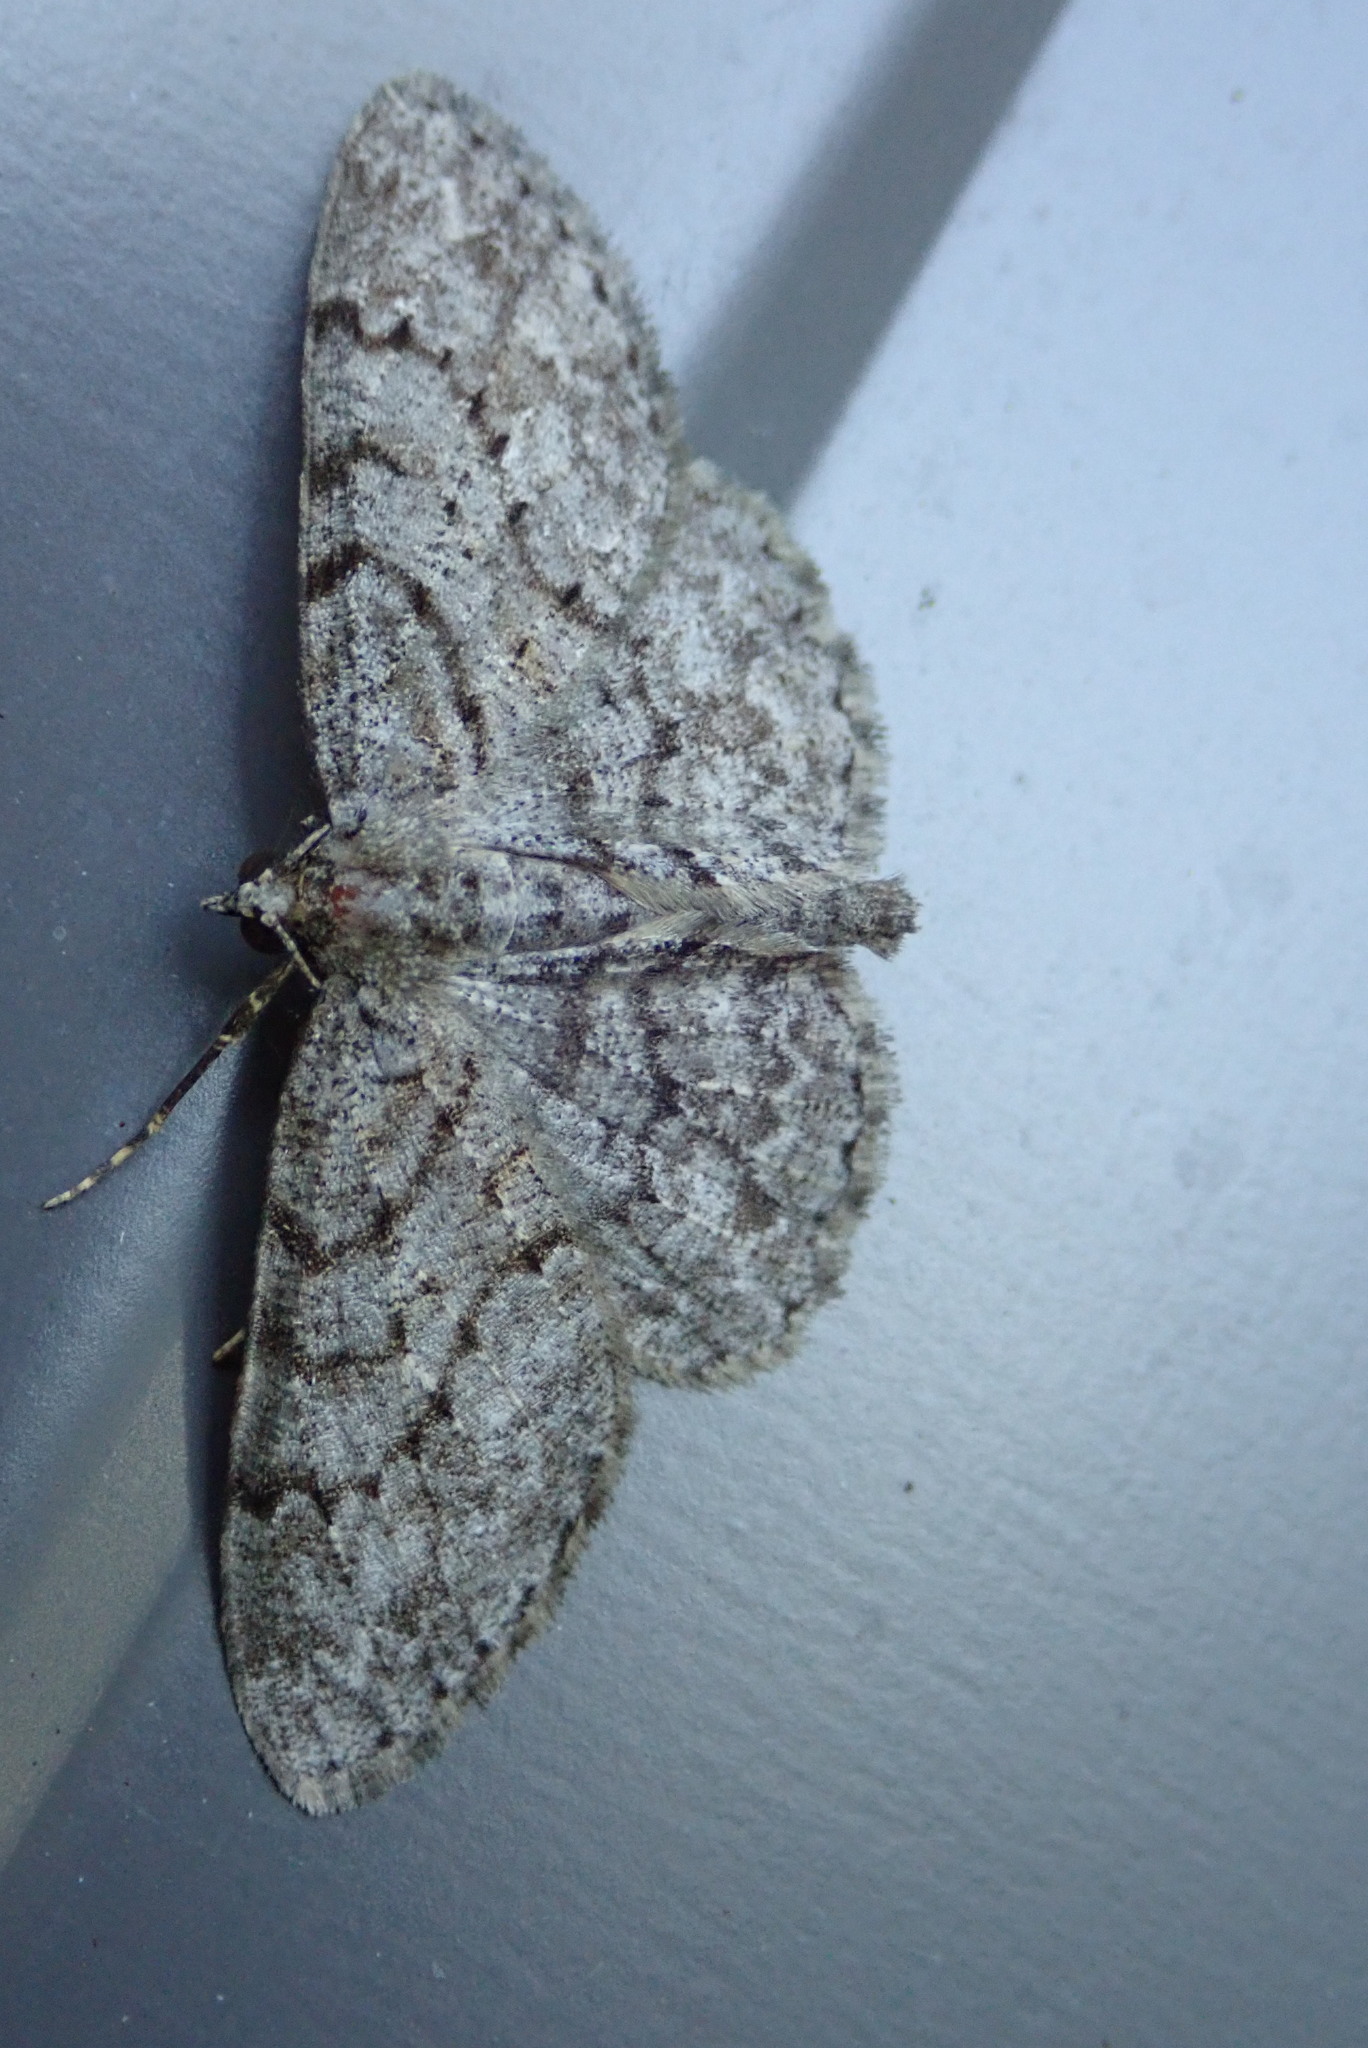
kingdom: Animalia
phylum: Arthropoda
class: Insecta
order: Lepidoptera
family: Geometridae
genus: Protoboarmia
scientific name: Protoboarmia porcelaria
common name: Porcelain gray
